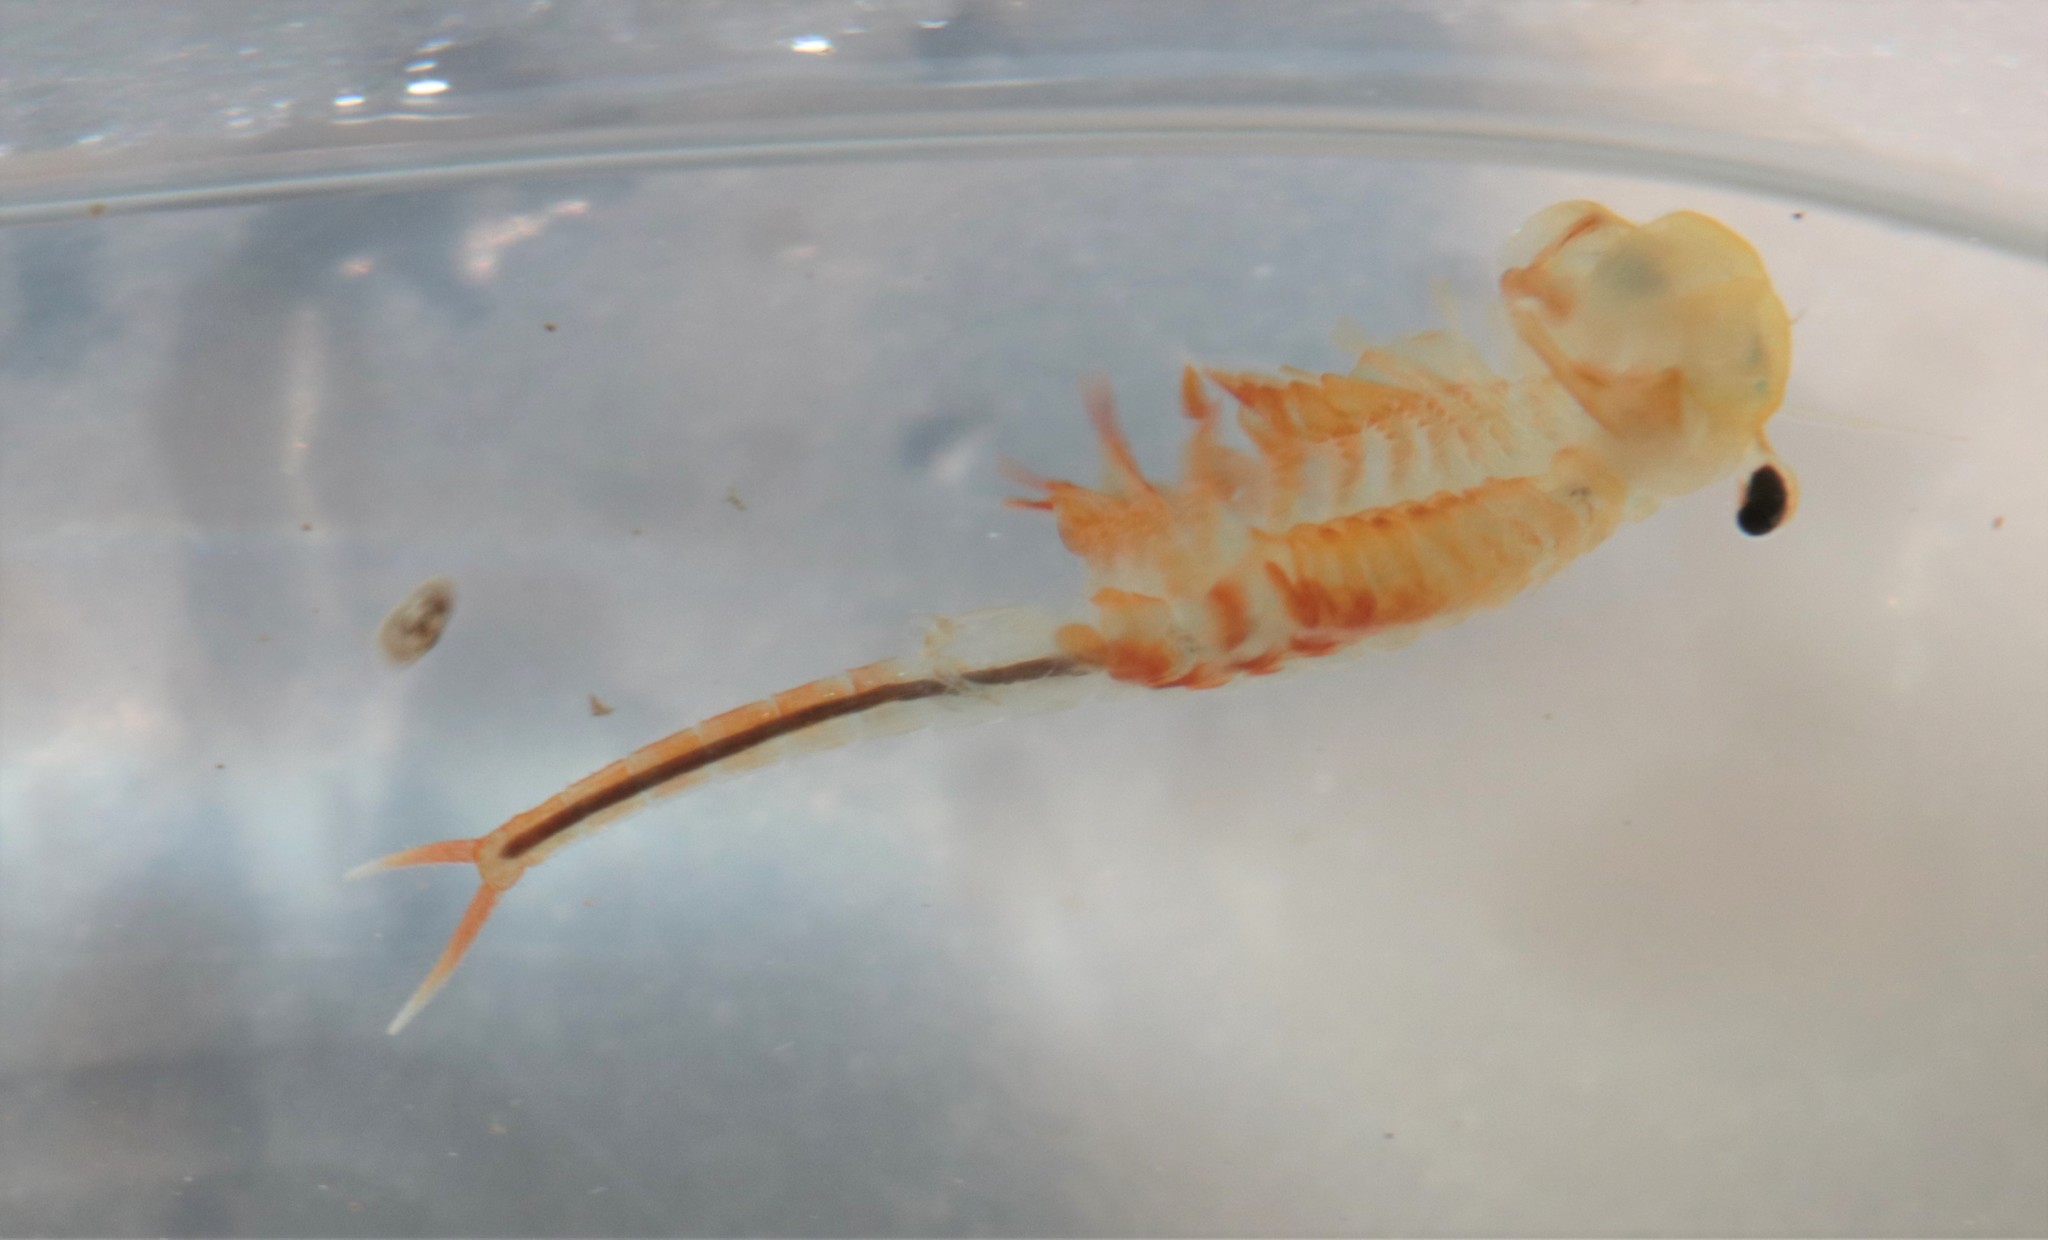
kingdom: Animalia
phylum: Arthropoda
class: Branchiopoda
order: Anostraca
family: Chirocephalidae
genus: Eubranchipus
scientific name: Eubranchipus bundyi
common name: Knob-lip fairy shrimp
